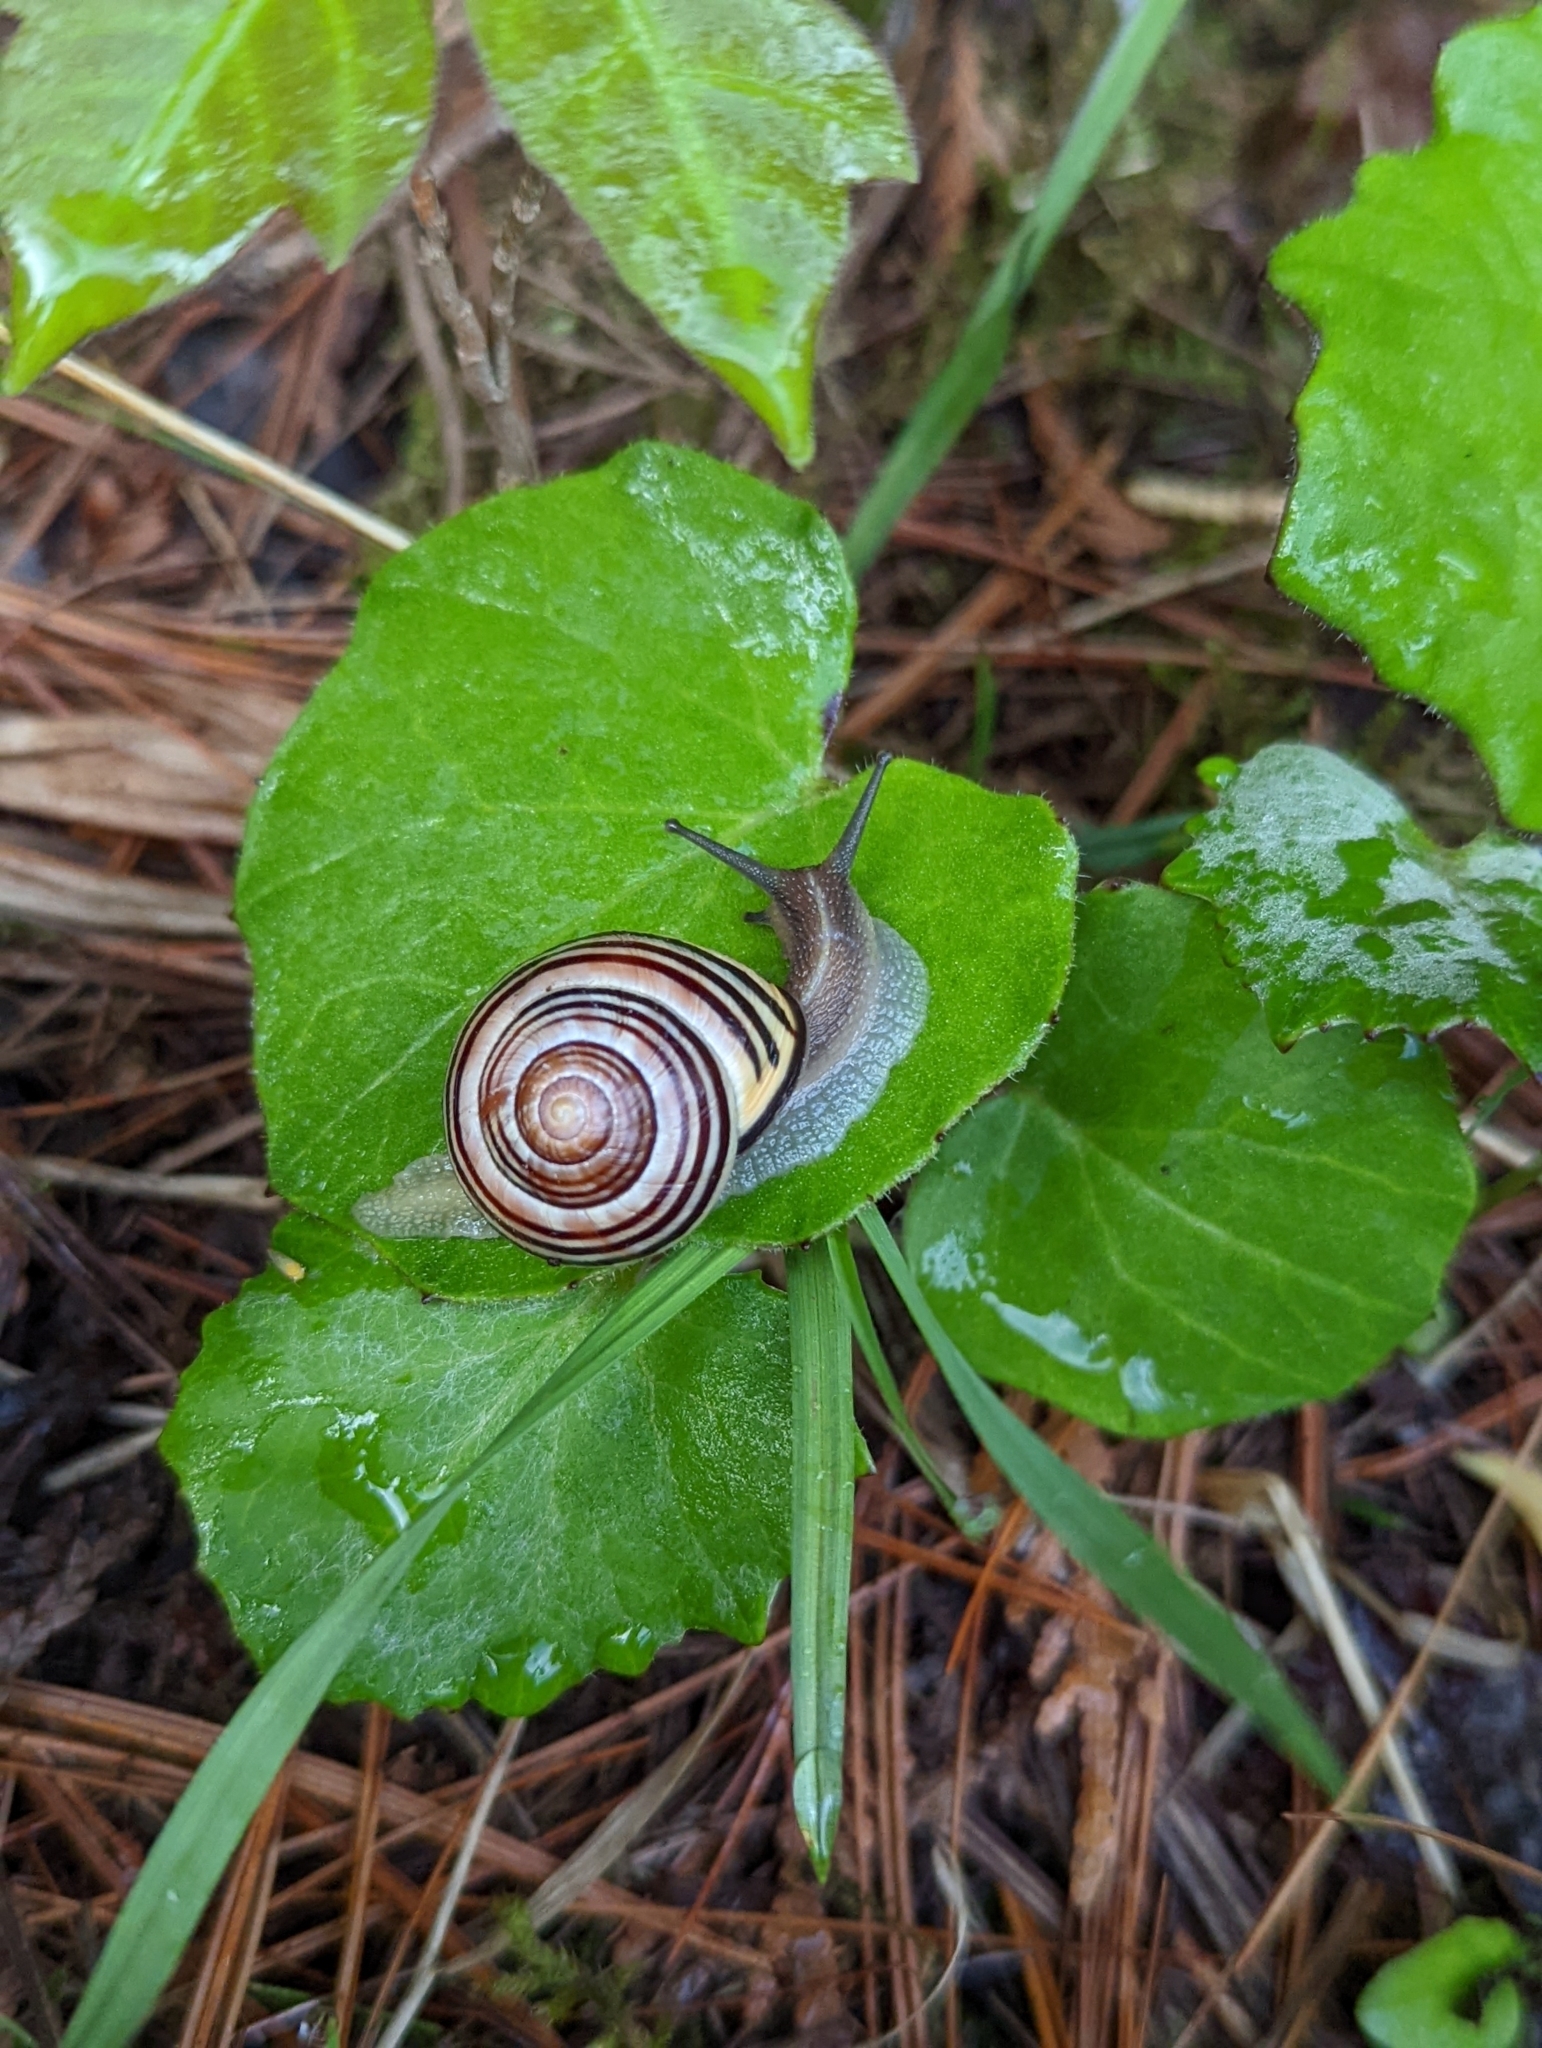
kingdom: Animalia
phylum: Mollusca
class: Gastropoda
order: Stylommatophora
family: Helicidae
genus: Cepaea
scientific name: Cepaea nemoralis
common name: Grovesnail
